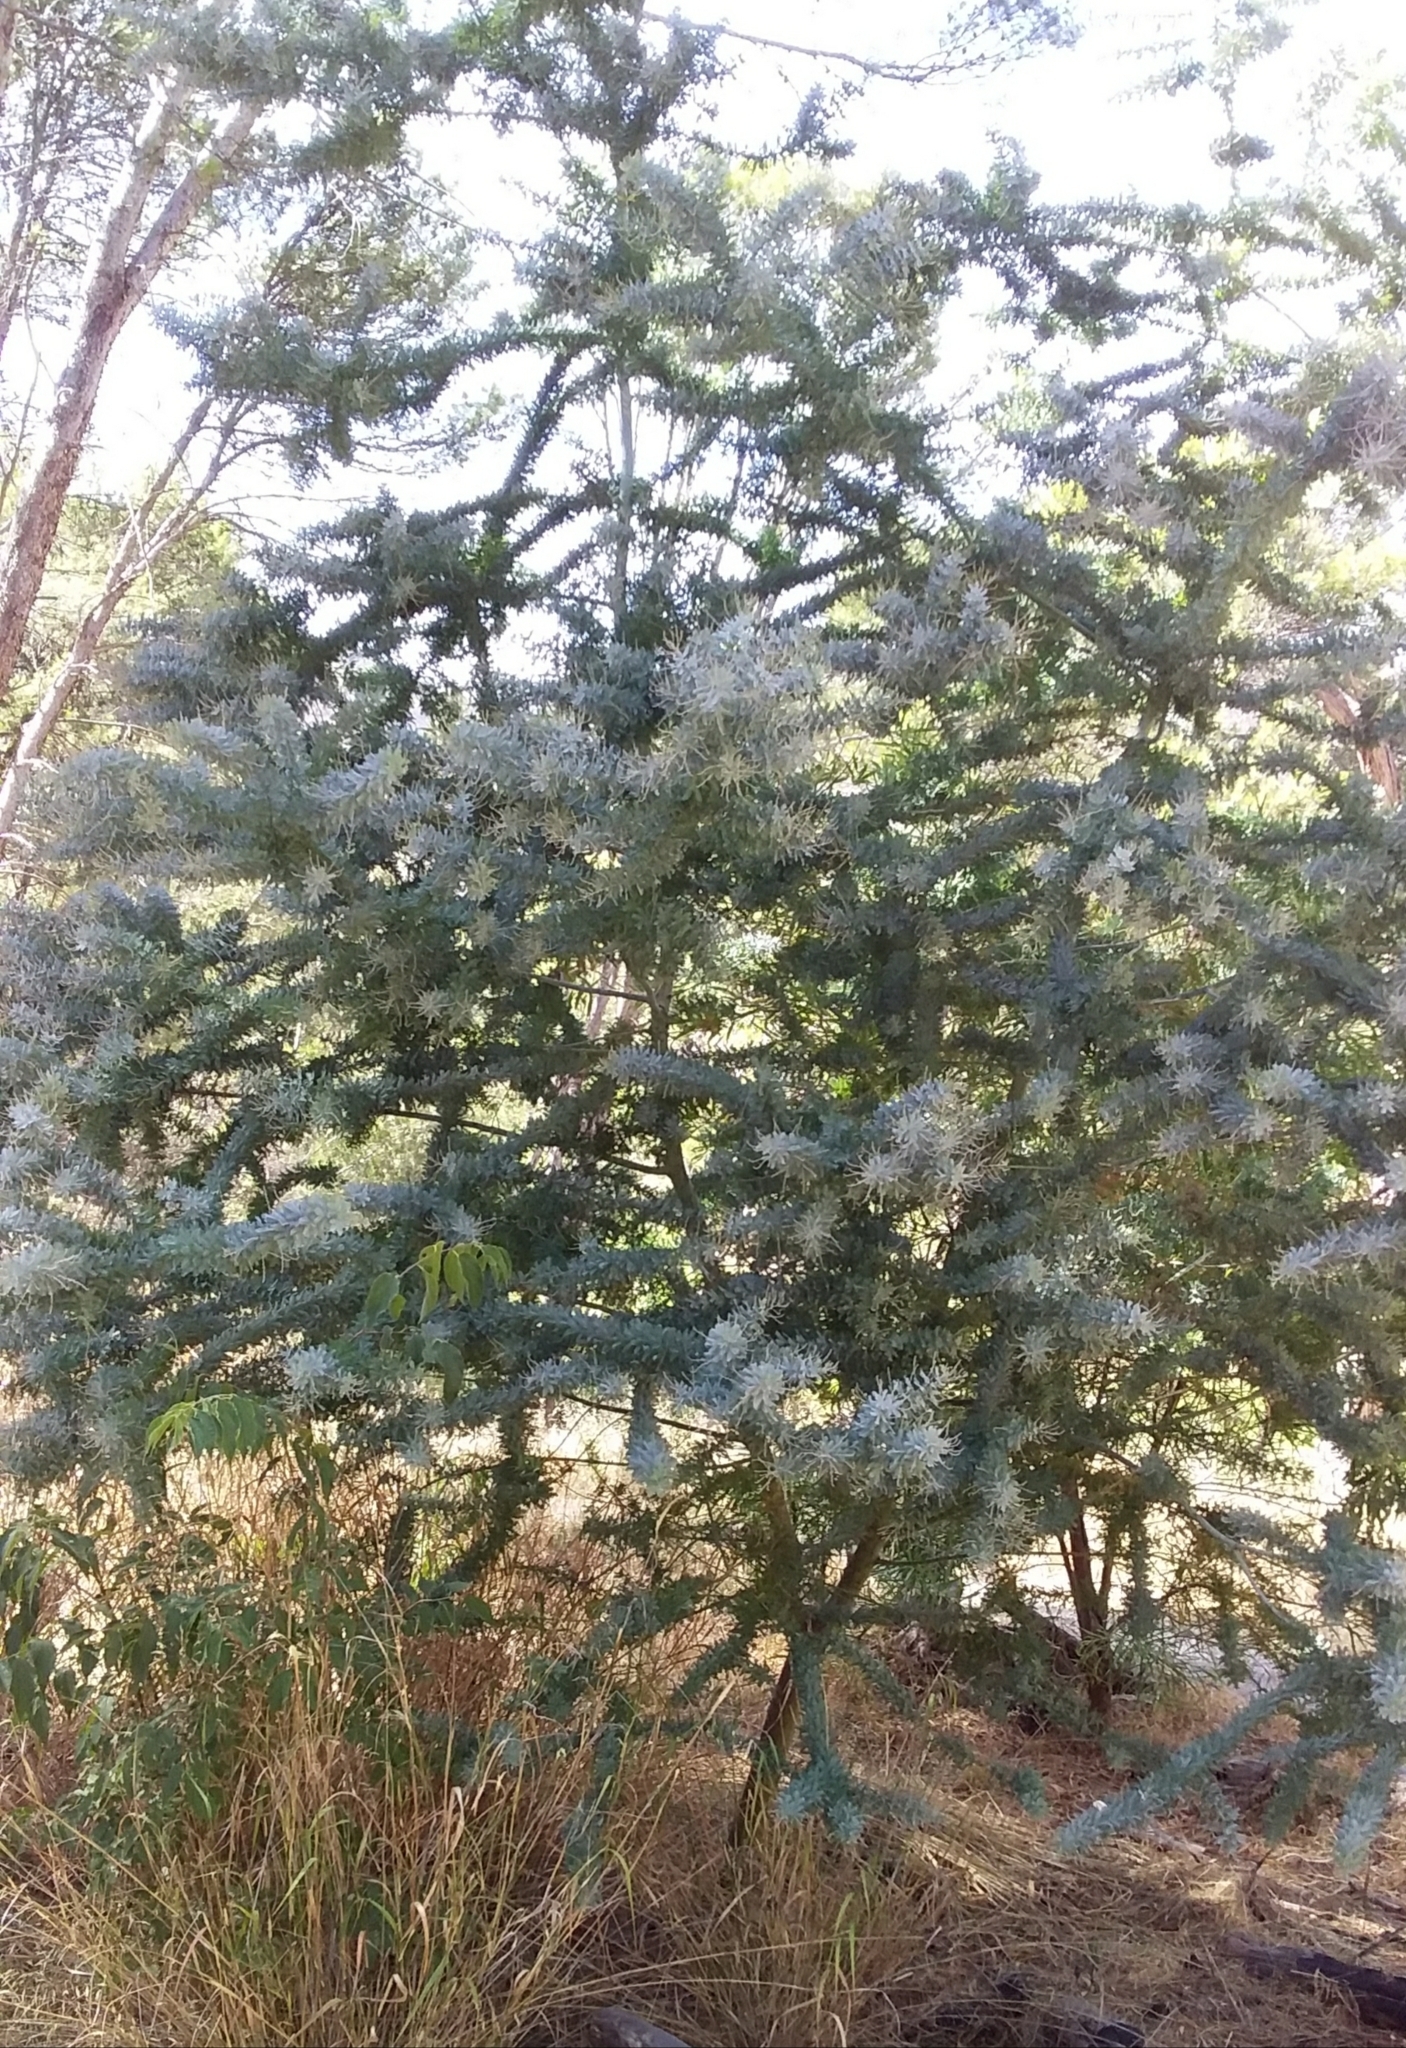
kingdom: Plantae
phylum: Tracheophyta
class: Magnoliopsida
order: Fabales
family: Fabaceae
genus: Acacia
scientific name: Acacia baileyana
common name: Cootamundra wattle
